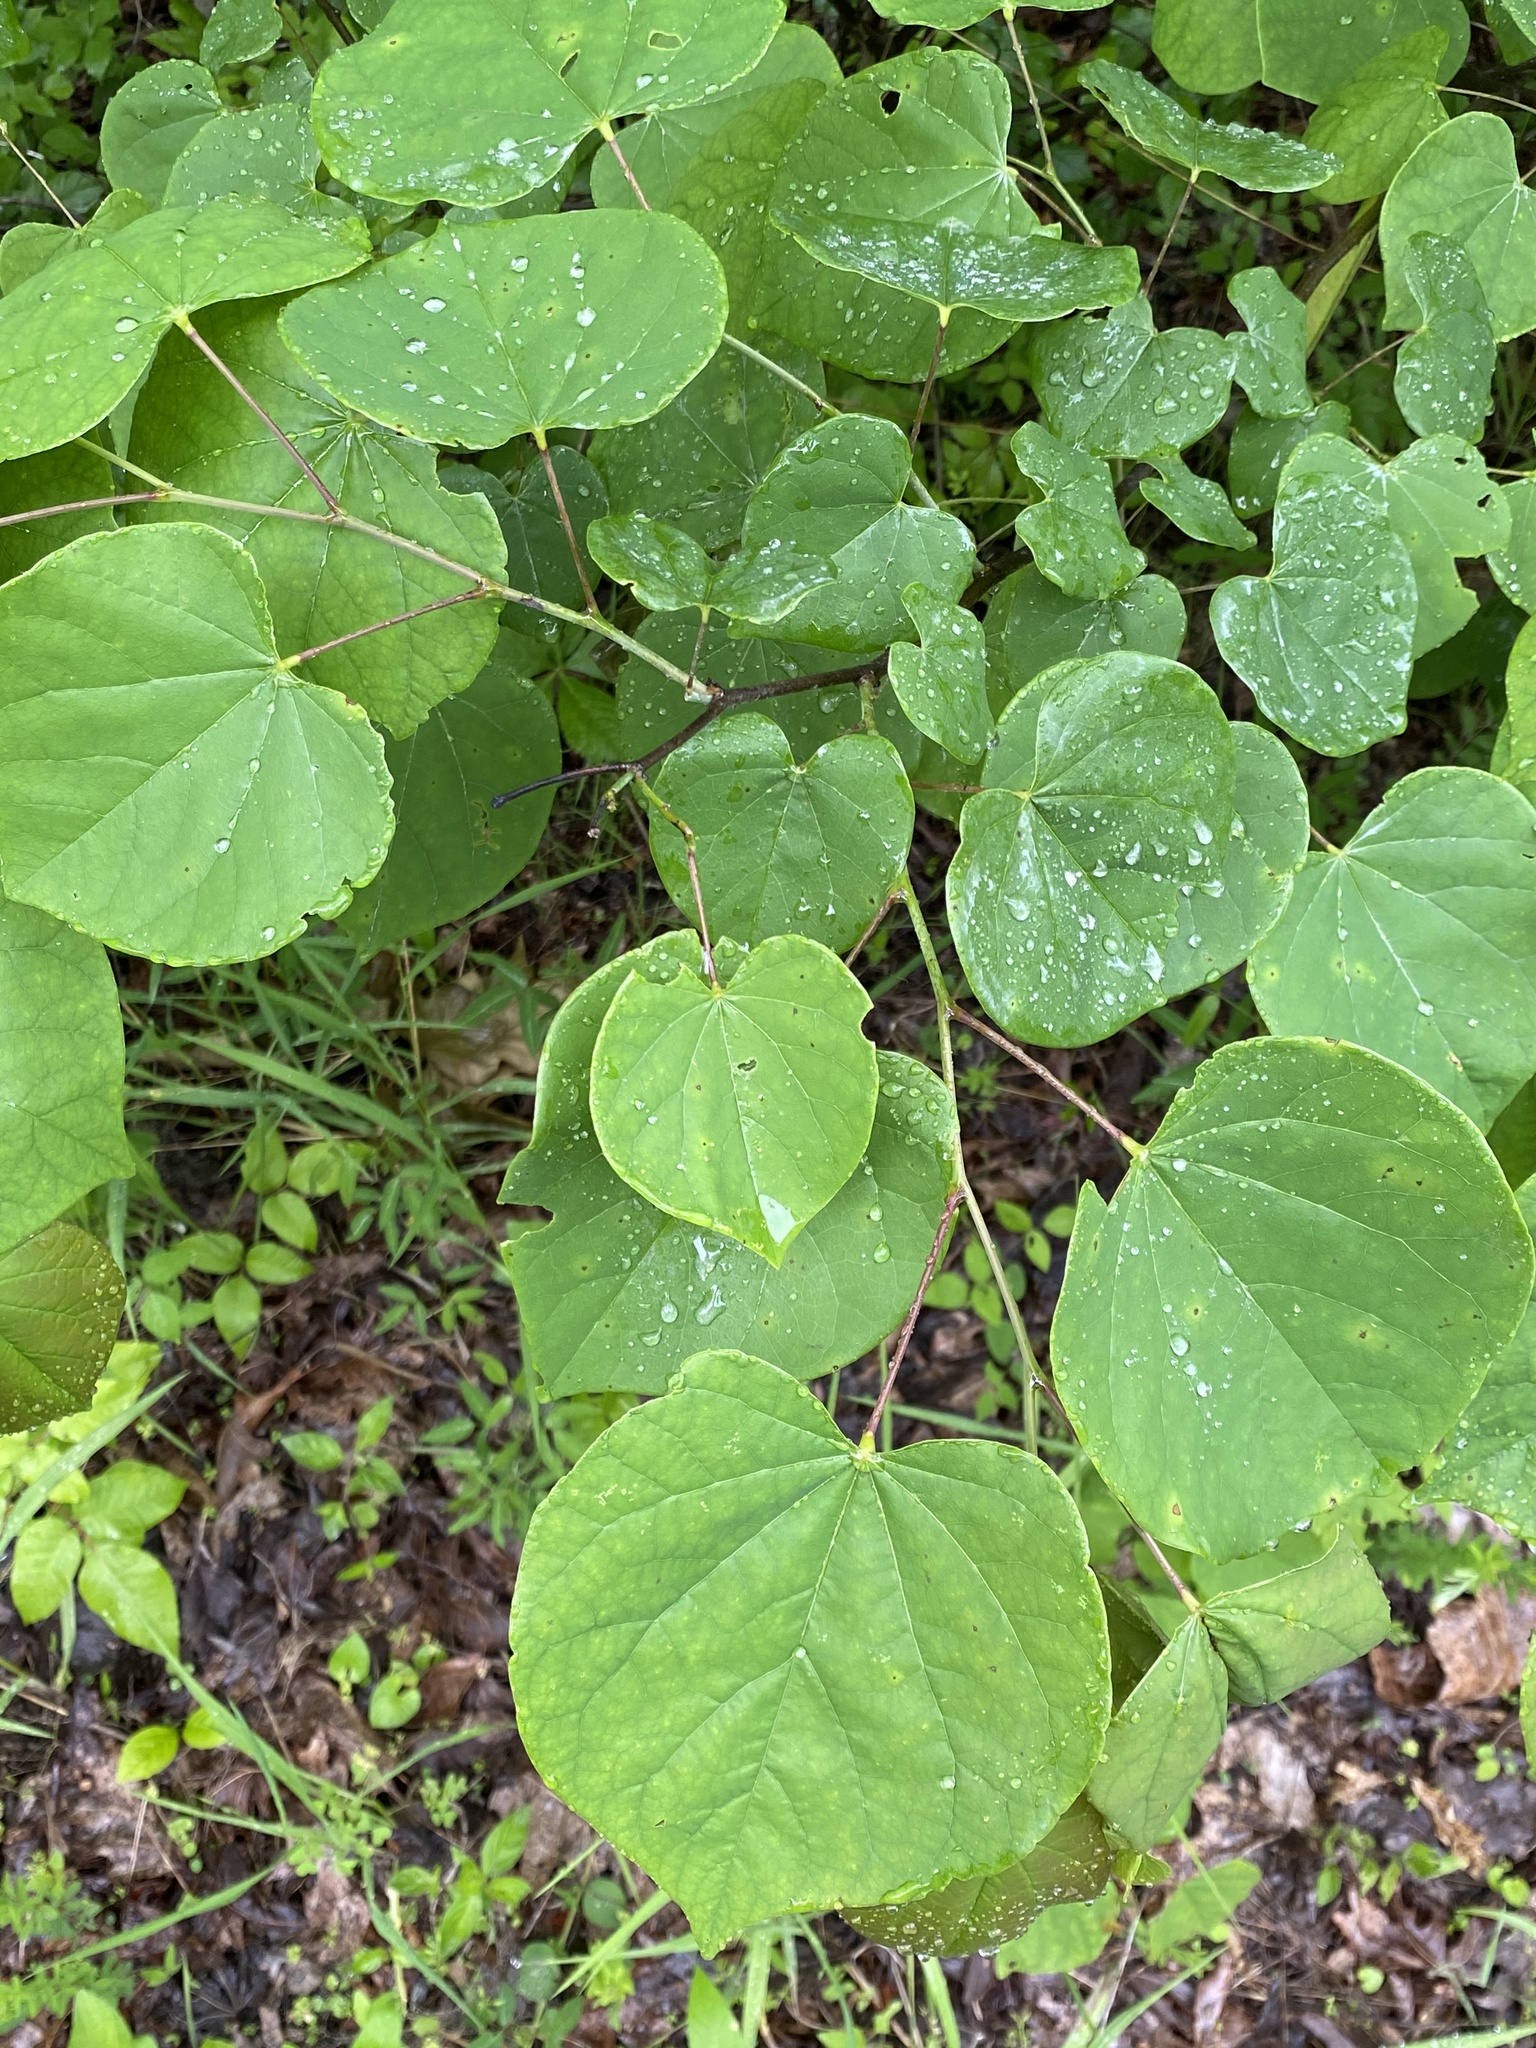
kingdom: Plantae
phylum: Tracheophyta
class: Magnoliopsida
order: Fabales
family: Fabaceae
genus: Cercis
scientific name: Cercis canadensis
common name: Eastern redbud
